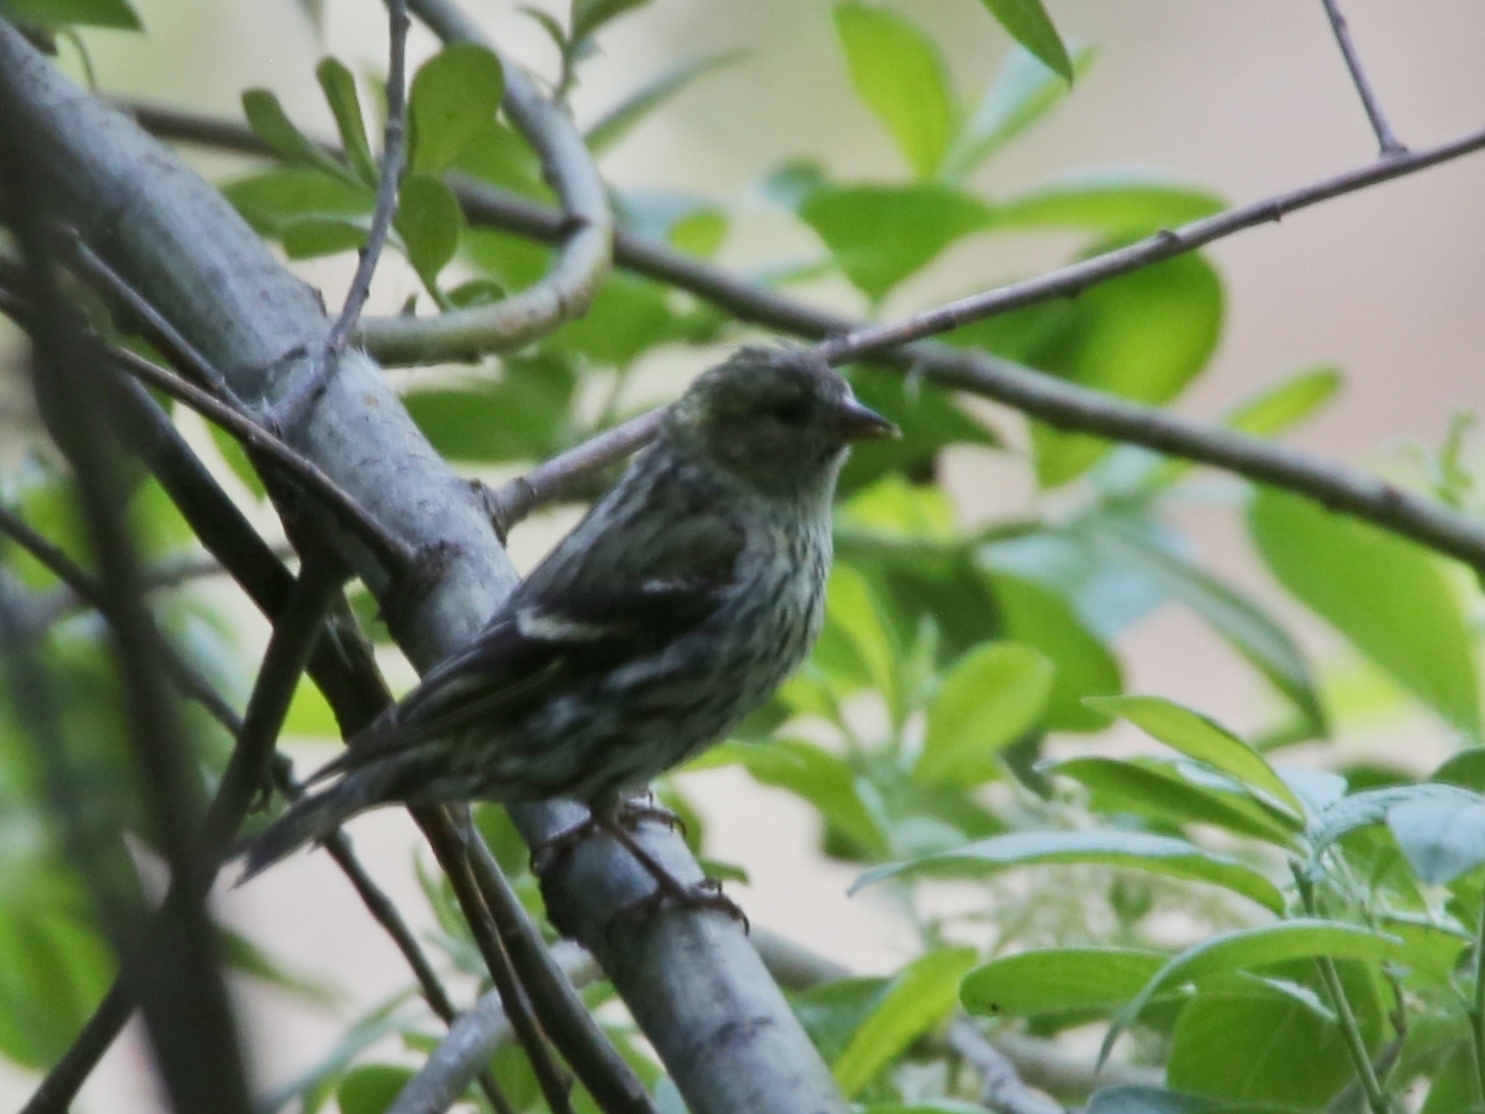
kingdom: Animalia
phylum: Chordata
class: Aves
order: Passeriformes
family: Fringillidae
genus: Spinus
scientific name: Spinus spinus
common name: Eurasian siskin
